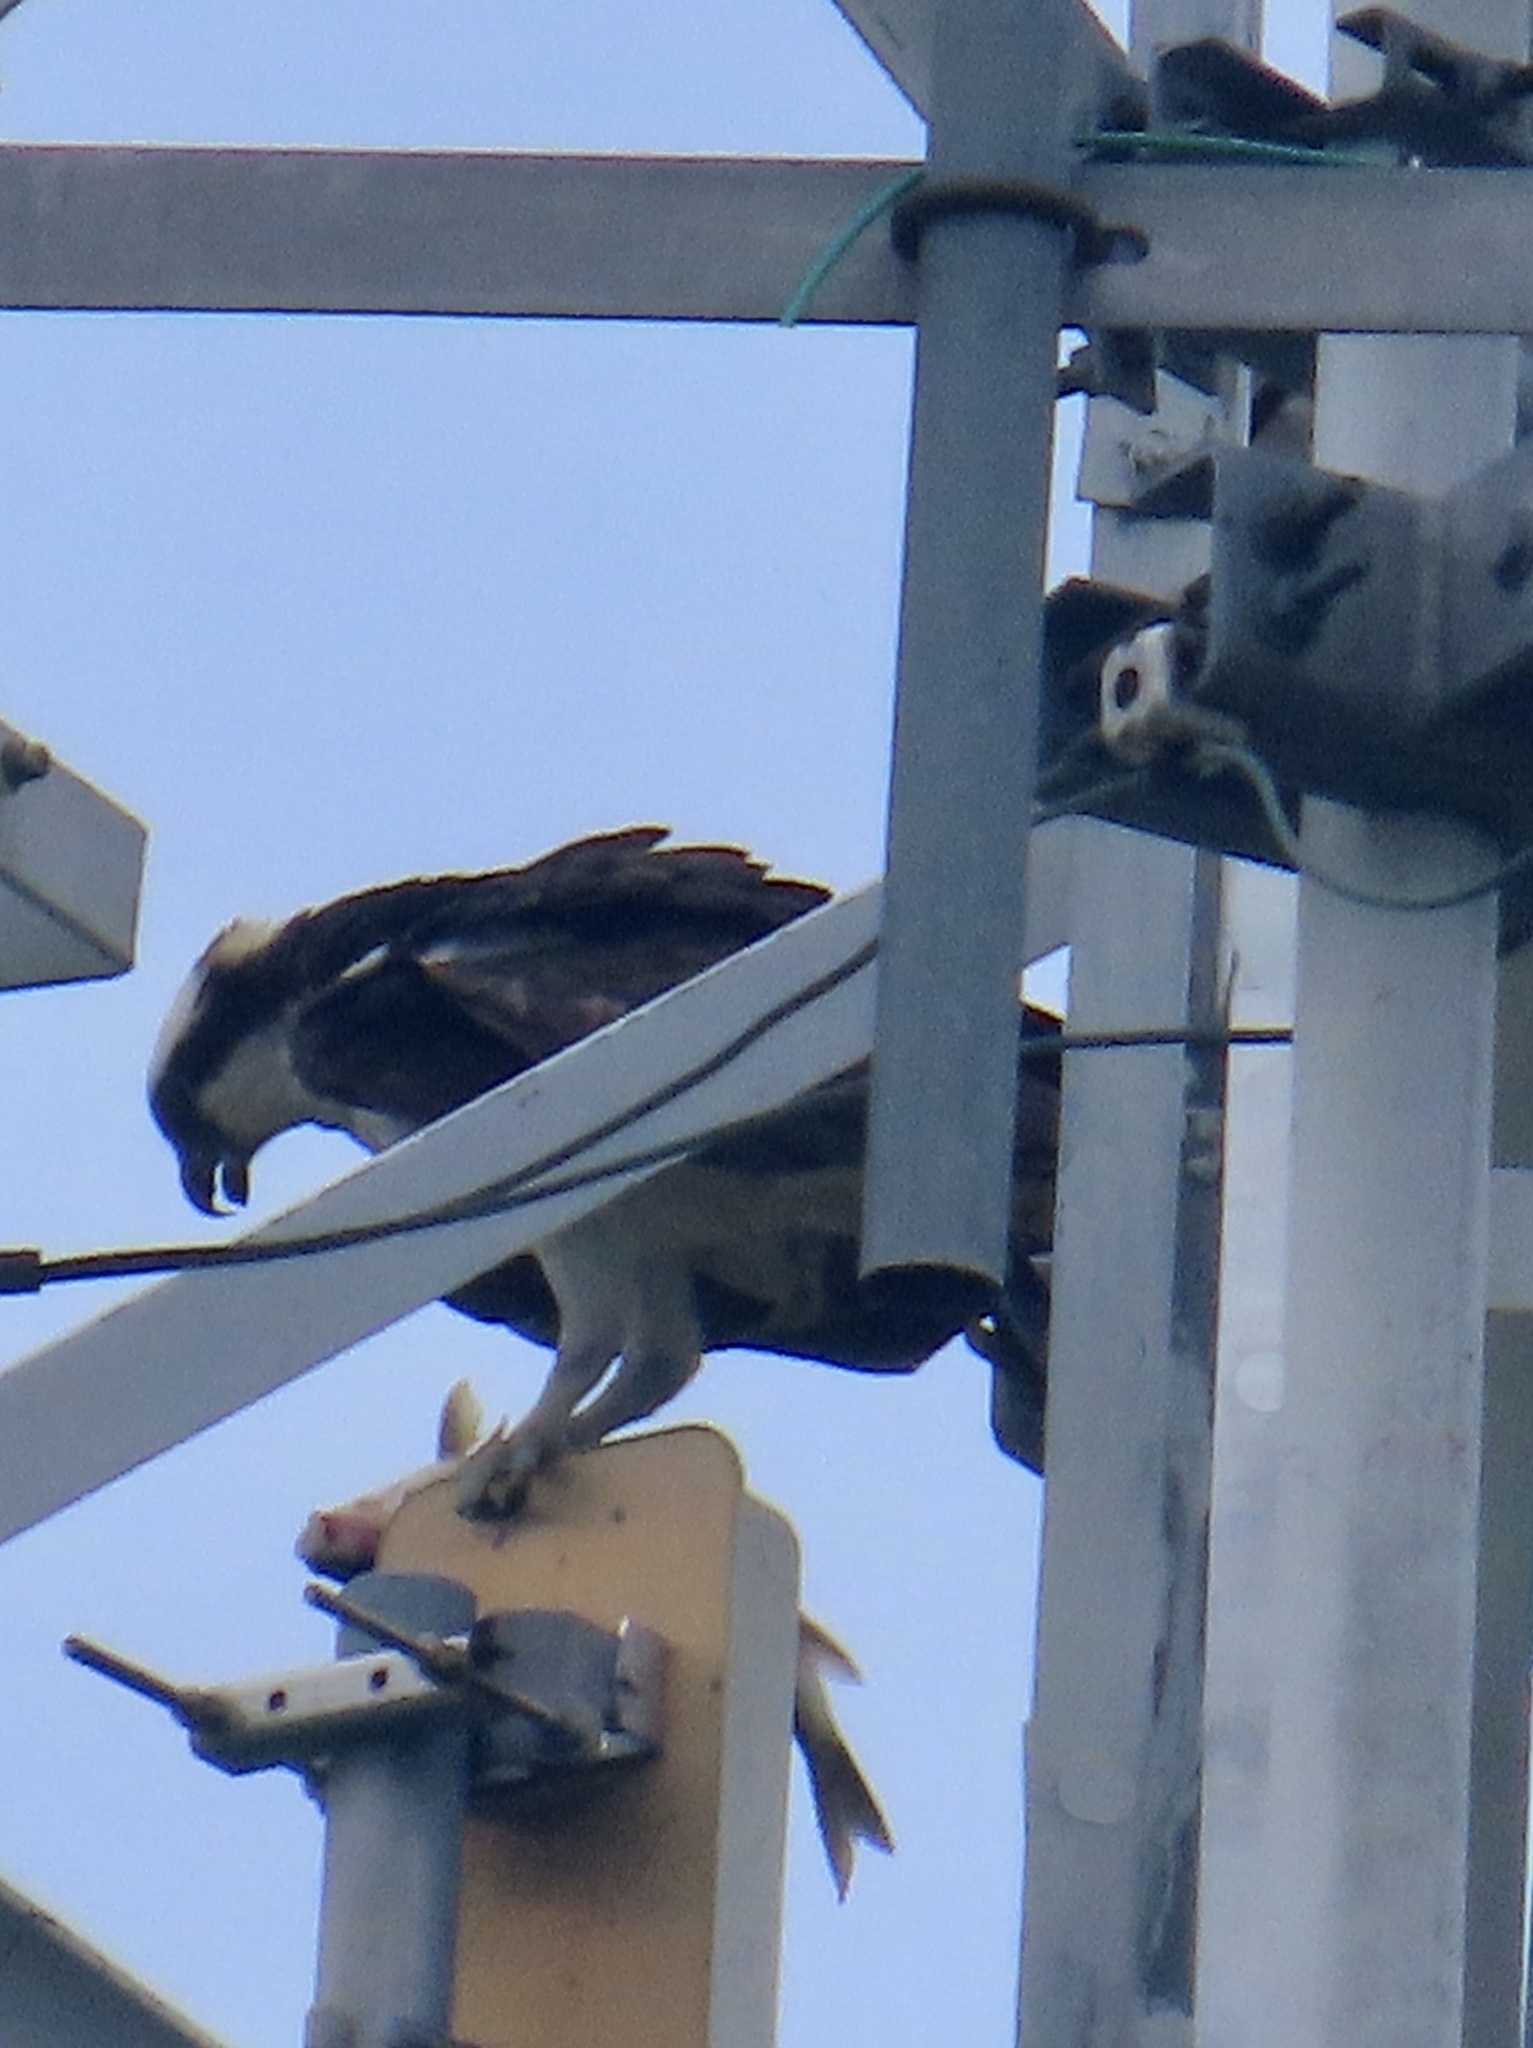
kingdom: Animalia
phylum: Chordata
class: Aves
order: Accipitriformes
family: Pandionidae
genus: Pandion
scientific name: Pandion haliaetus
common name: Osprey
